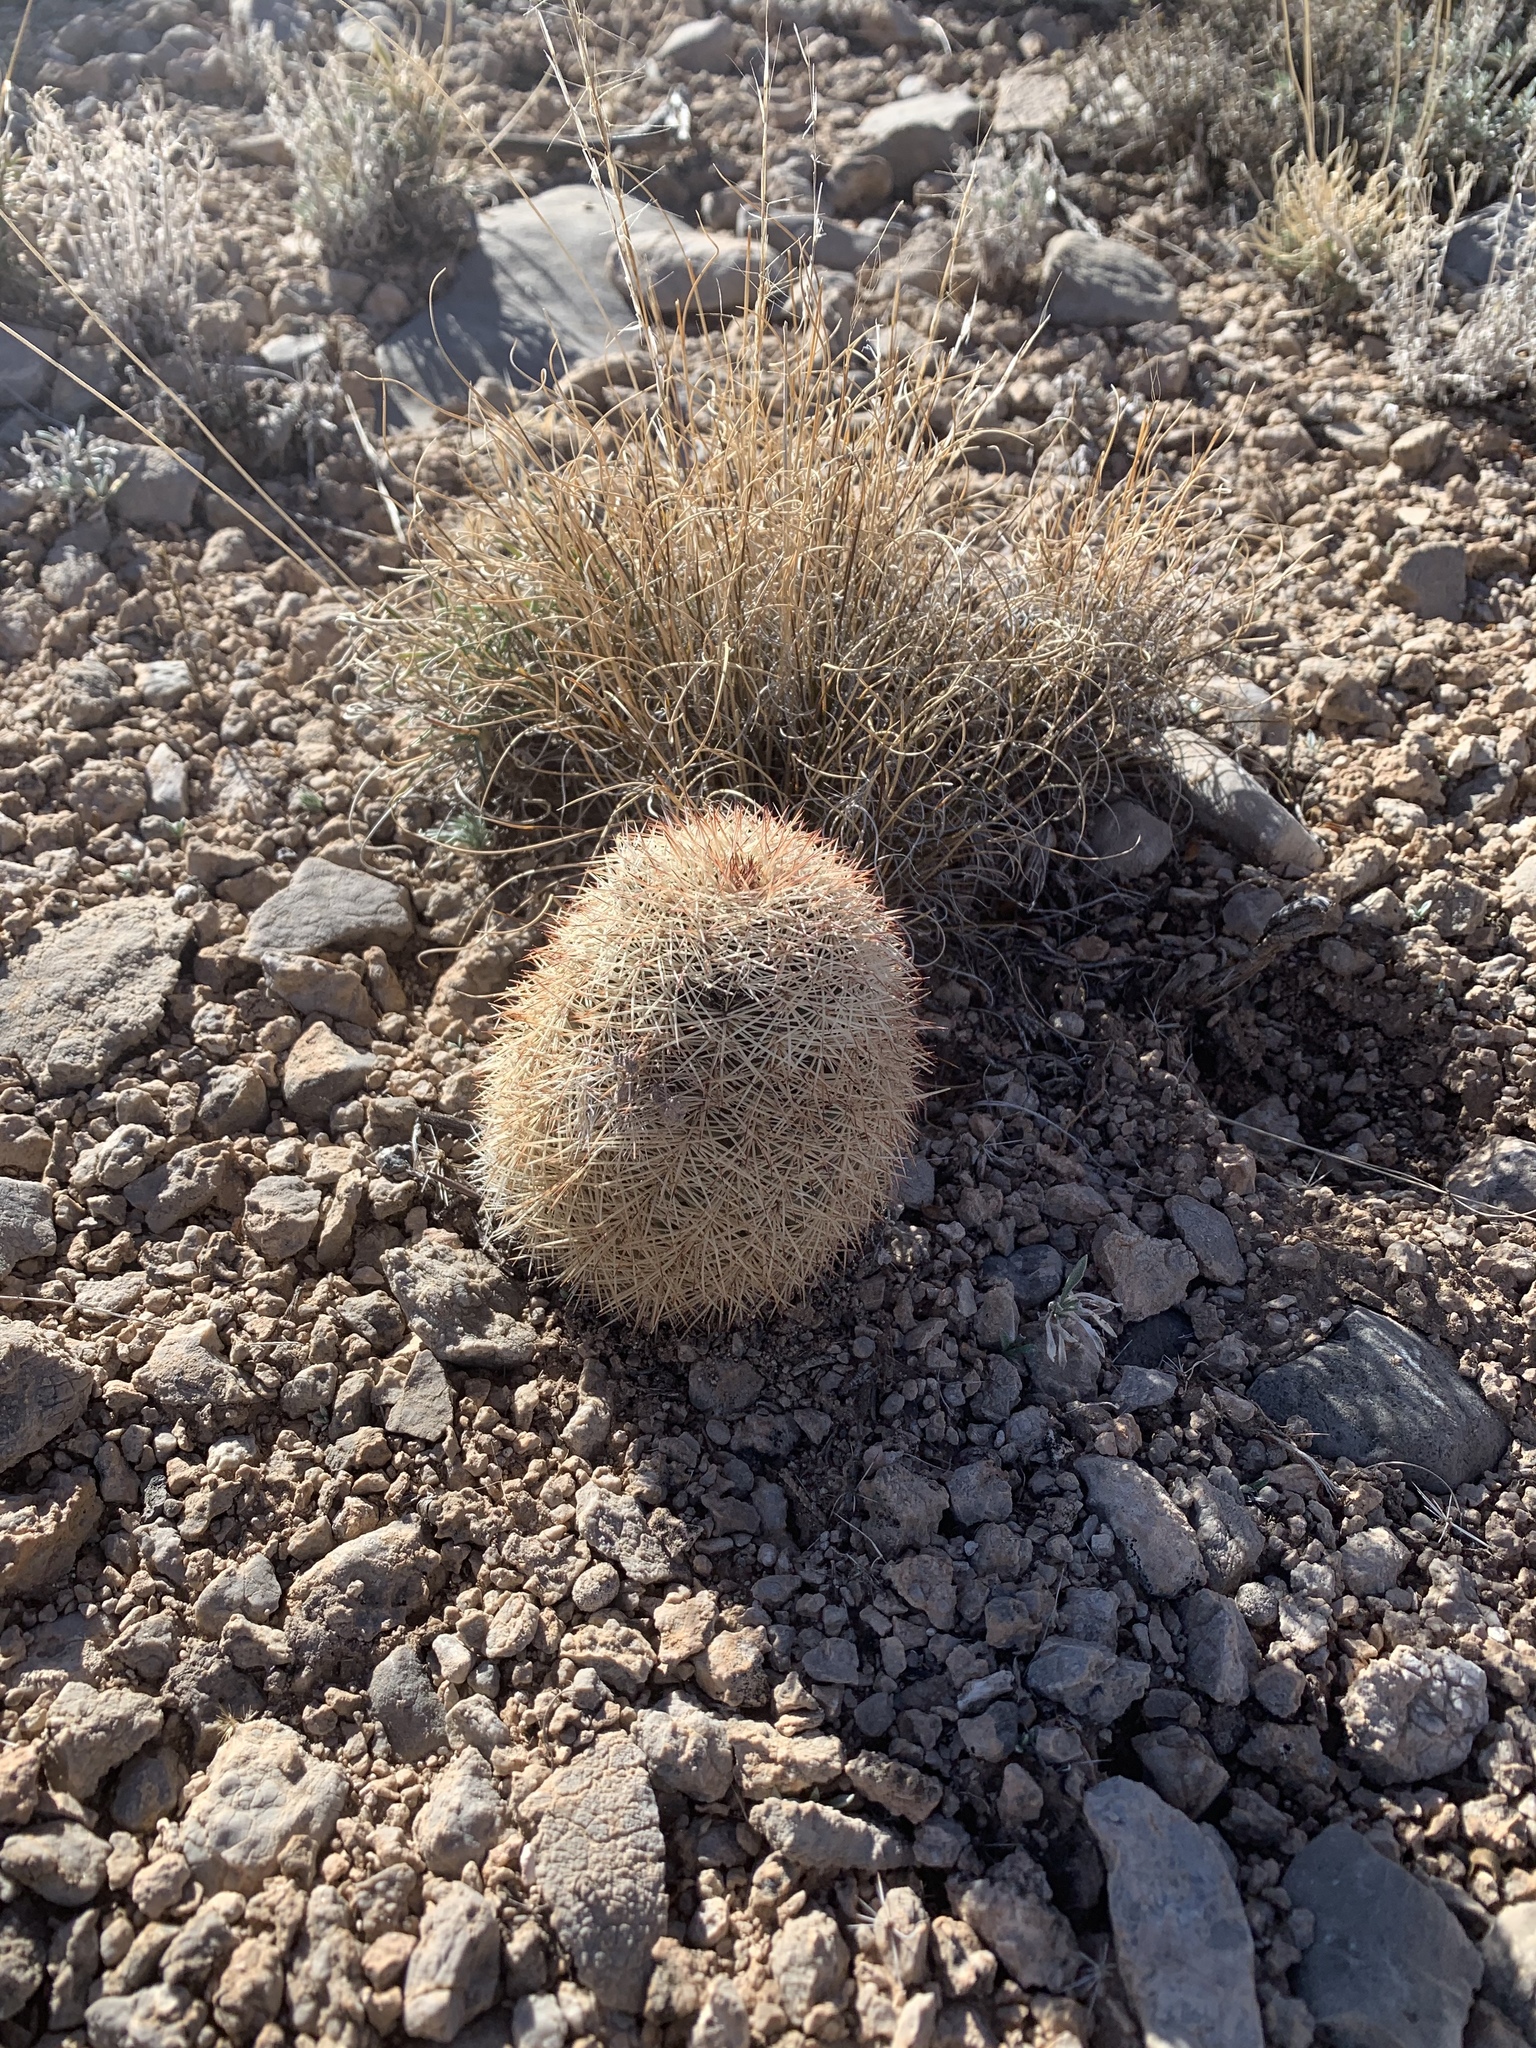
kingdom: Plantae
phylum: Tracheophyta
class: Magnoliopsida
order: Caryophyllales
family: Cactaceae
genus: Echinocereus
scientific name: Echinocereus dasyacanthus
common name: Spiny hedgehog cactus
